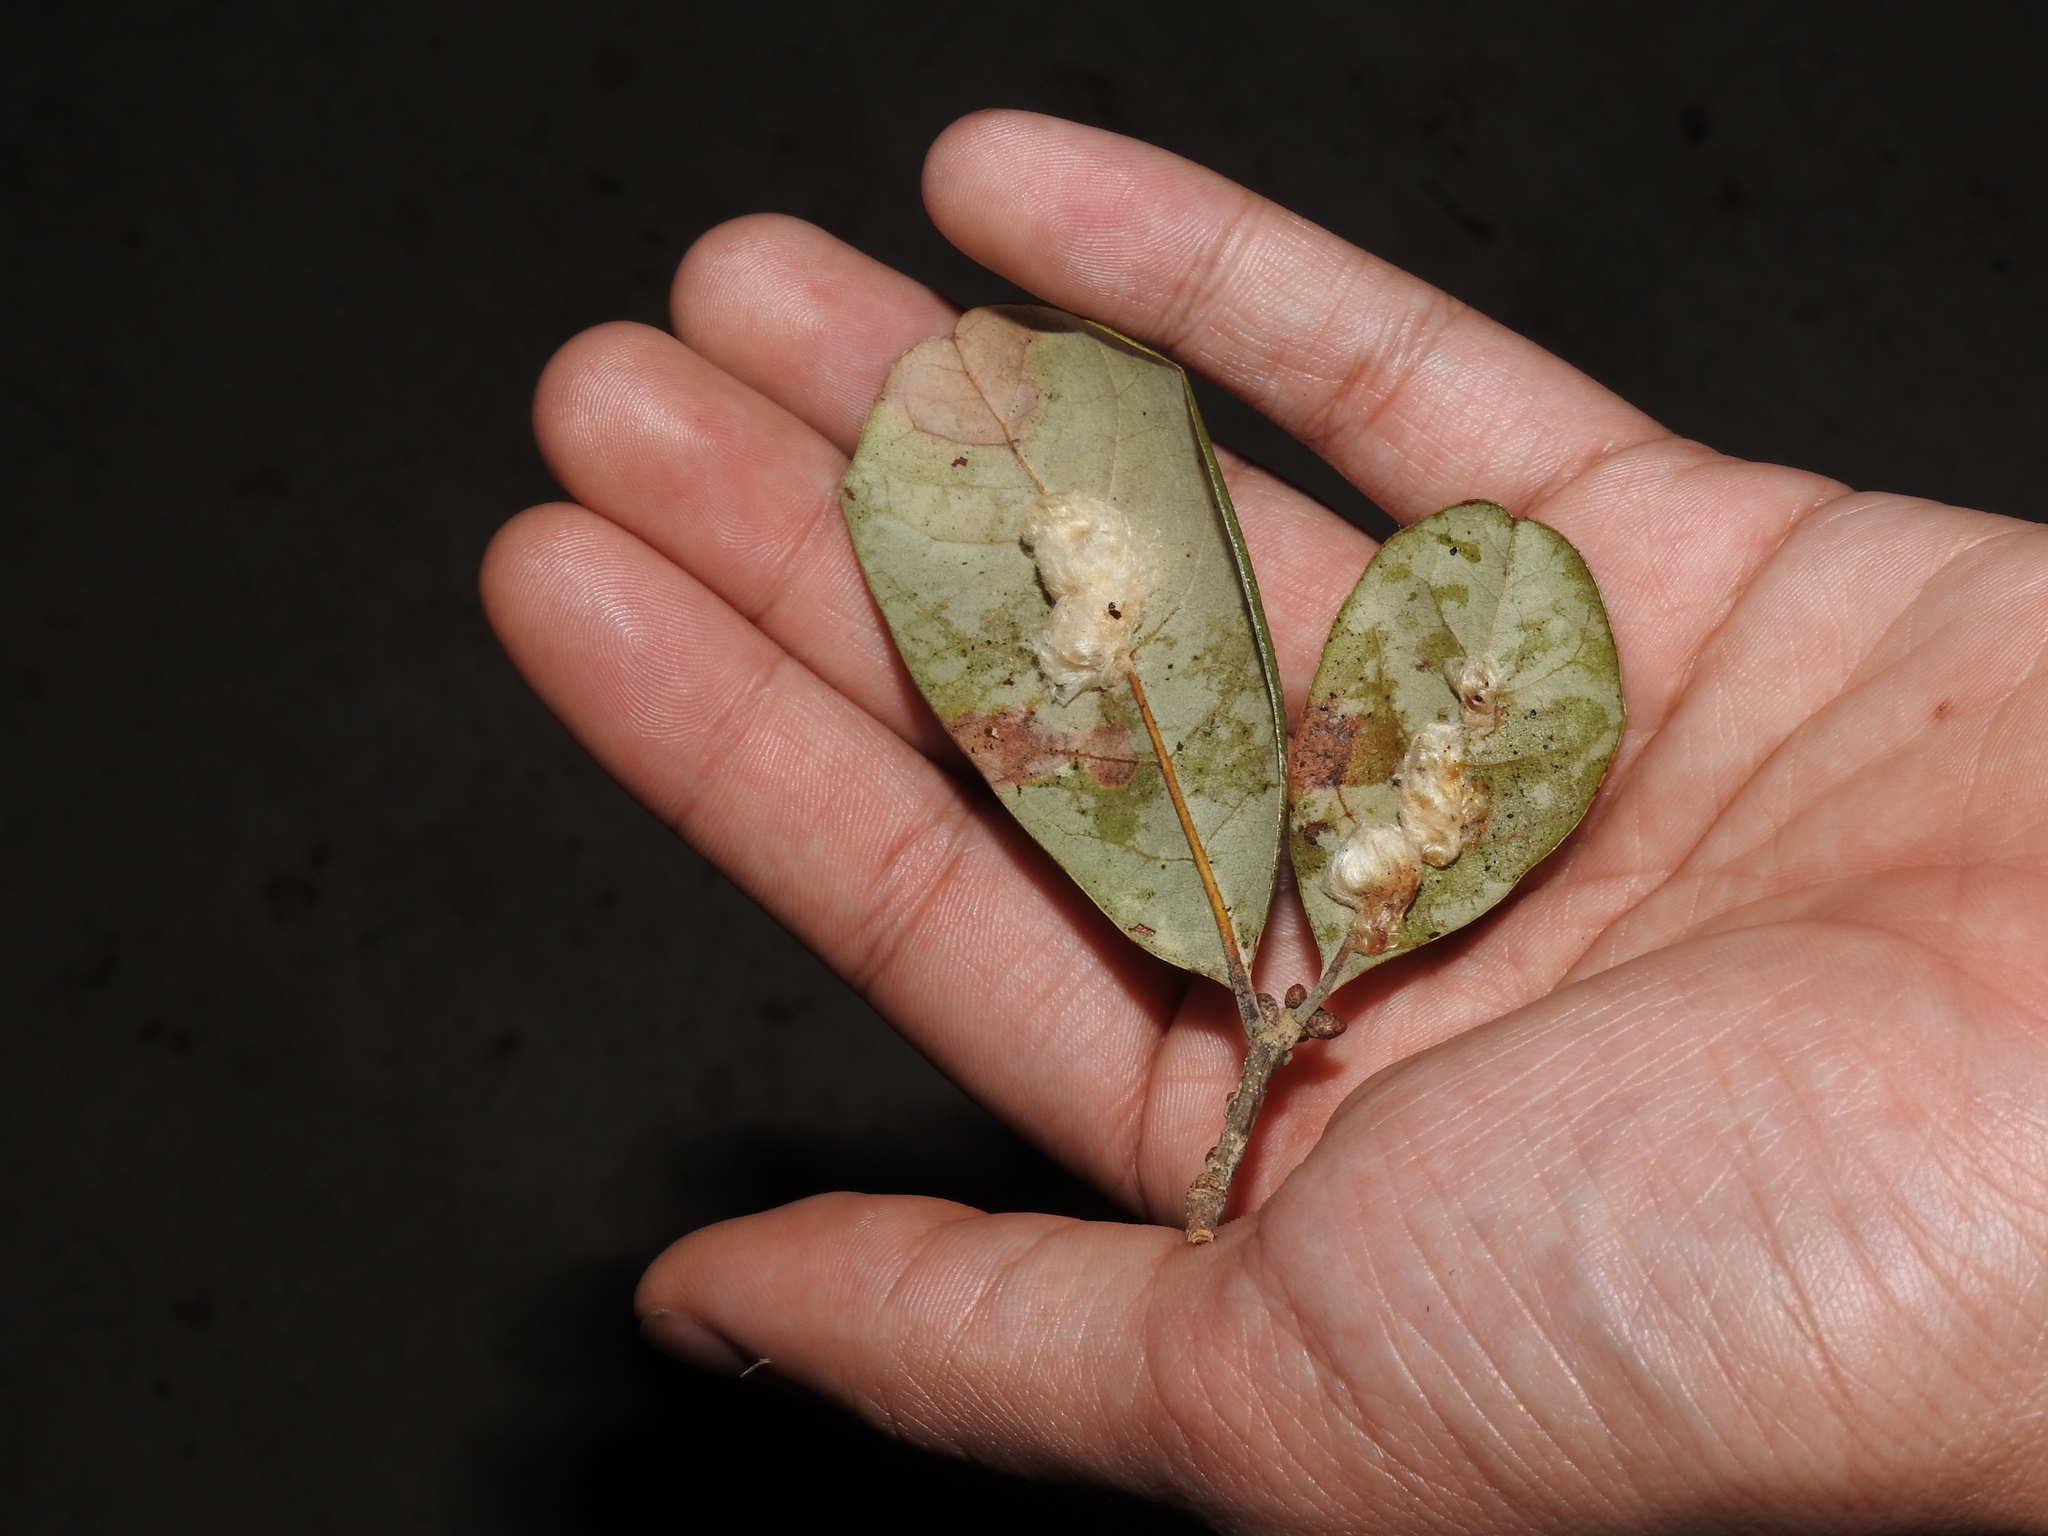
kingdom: Animalia
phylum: Arthropoda
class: Insecta
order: Hymenoptera
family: Cynipidae
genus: Andricus
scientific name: Andricus Druon quercuslanigerum
